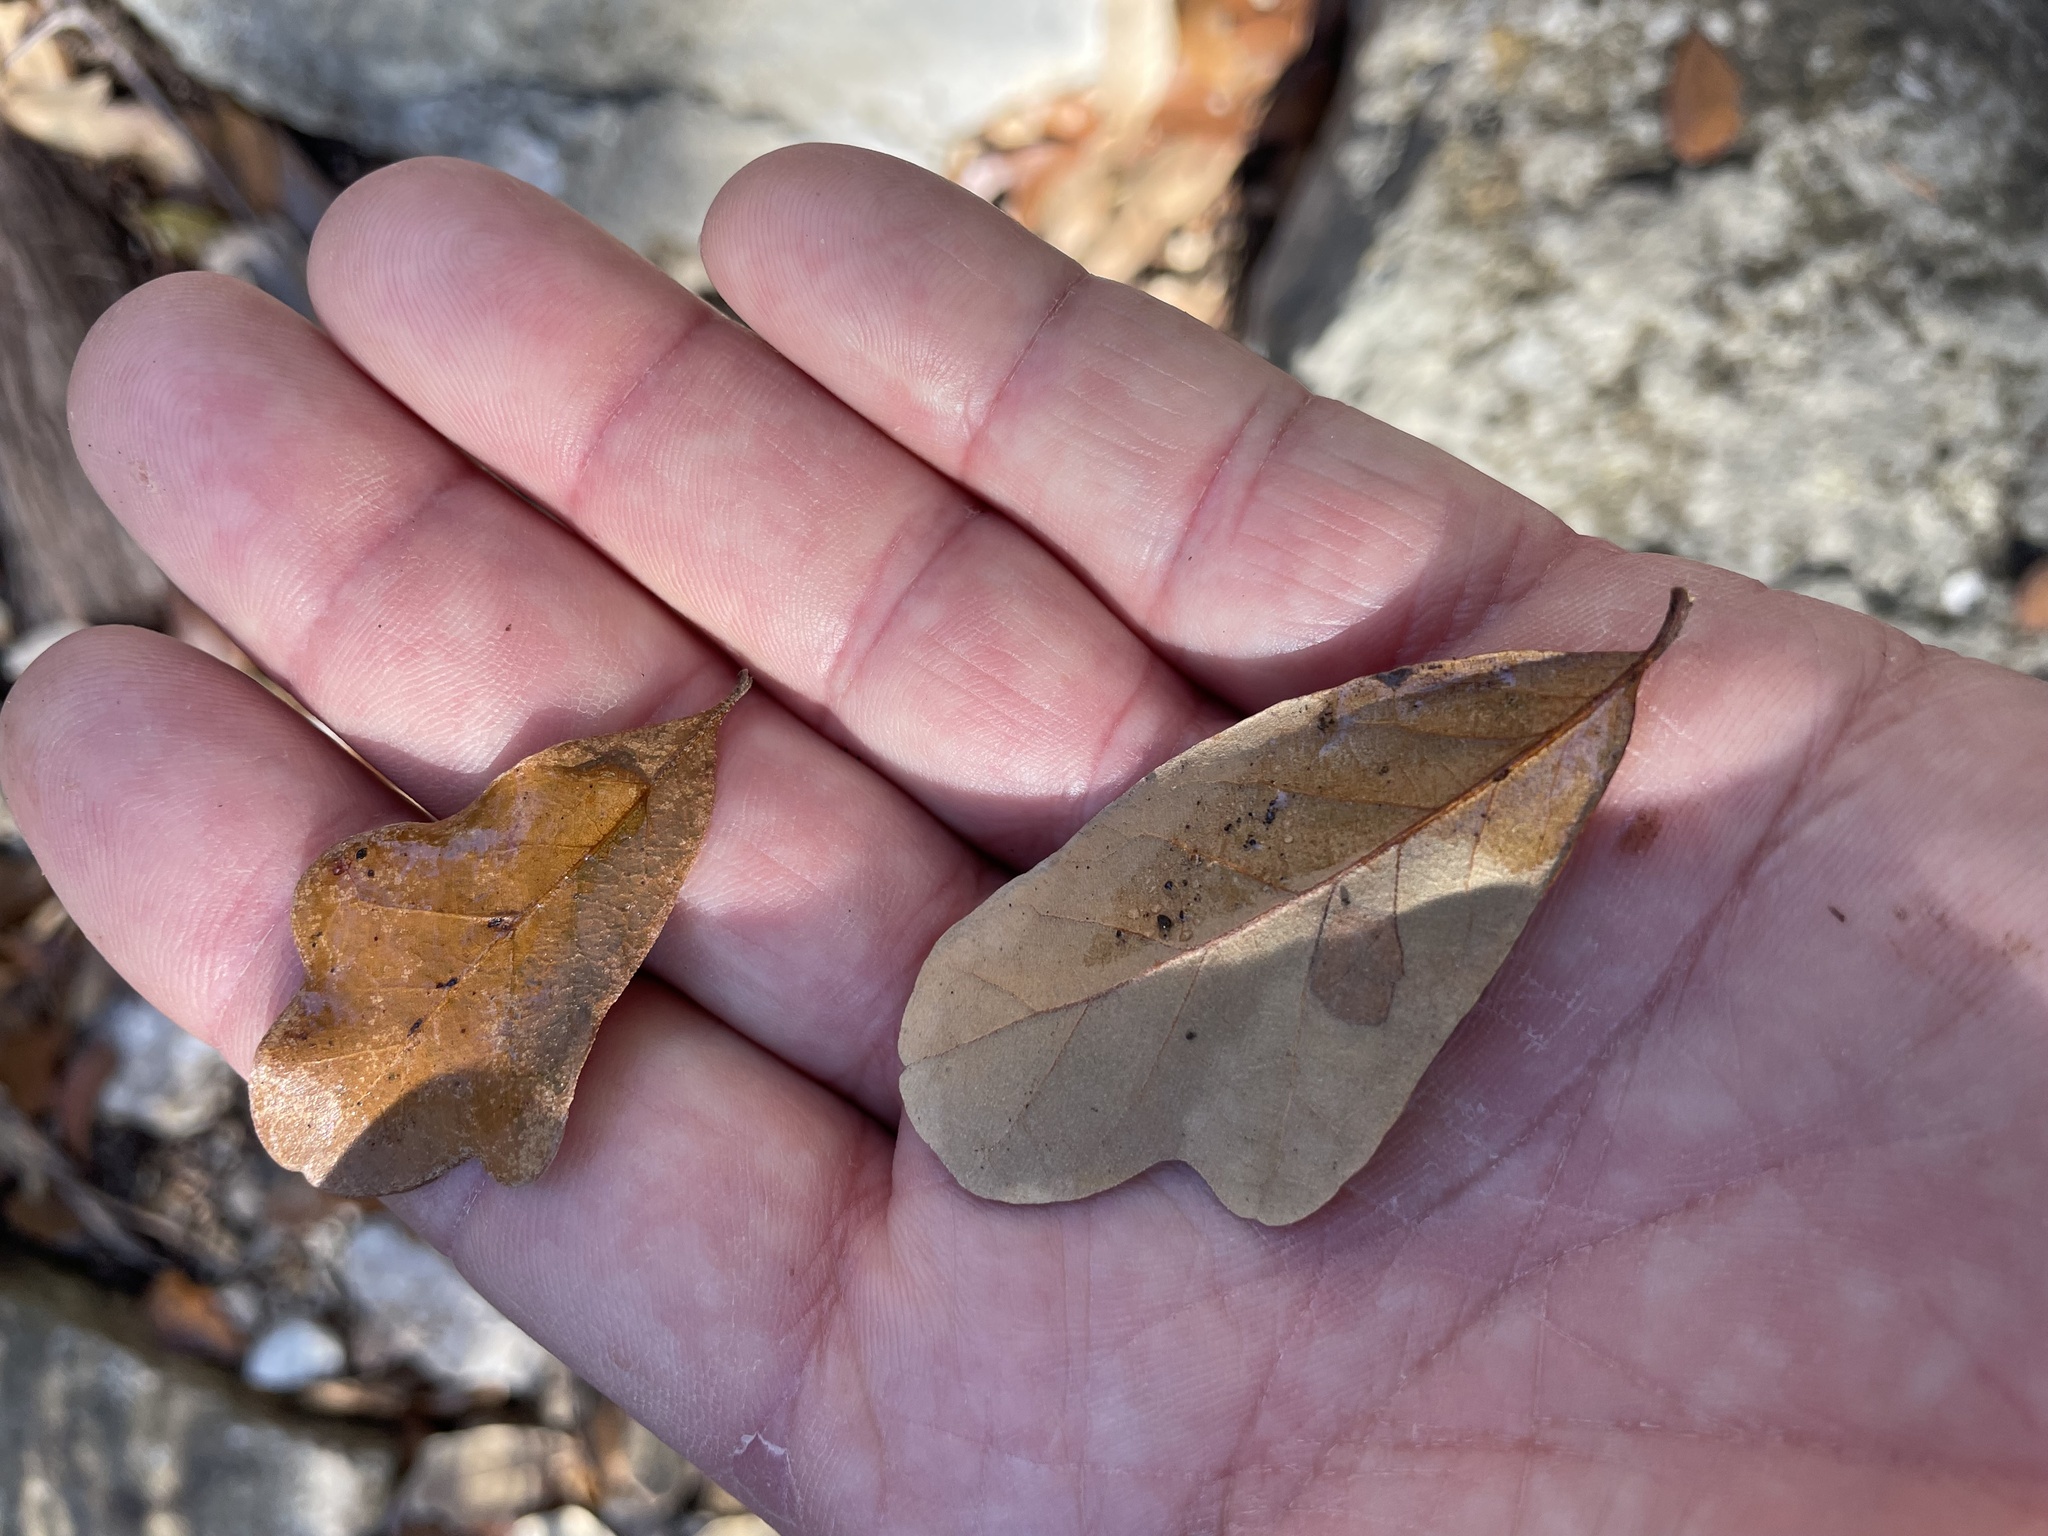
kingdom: Plantae
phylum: Tracheophyta
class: Magnoliopsida
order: Fagales
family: Fagaceae
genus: Quercus
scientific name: Quercus sinuata
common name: Durand oak
